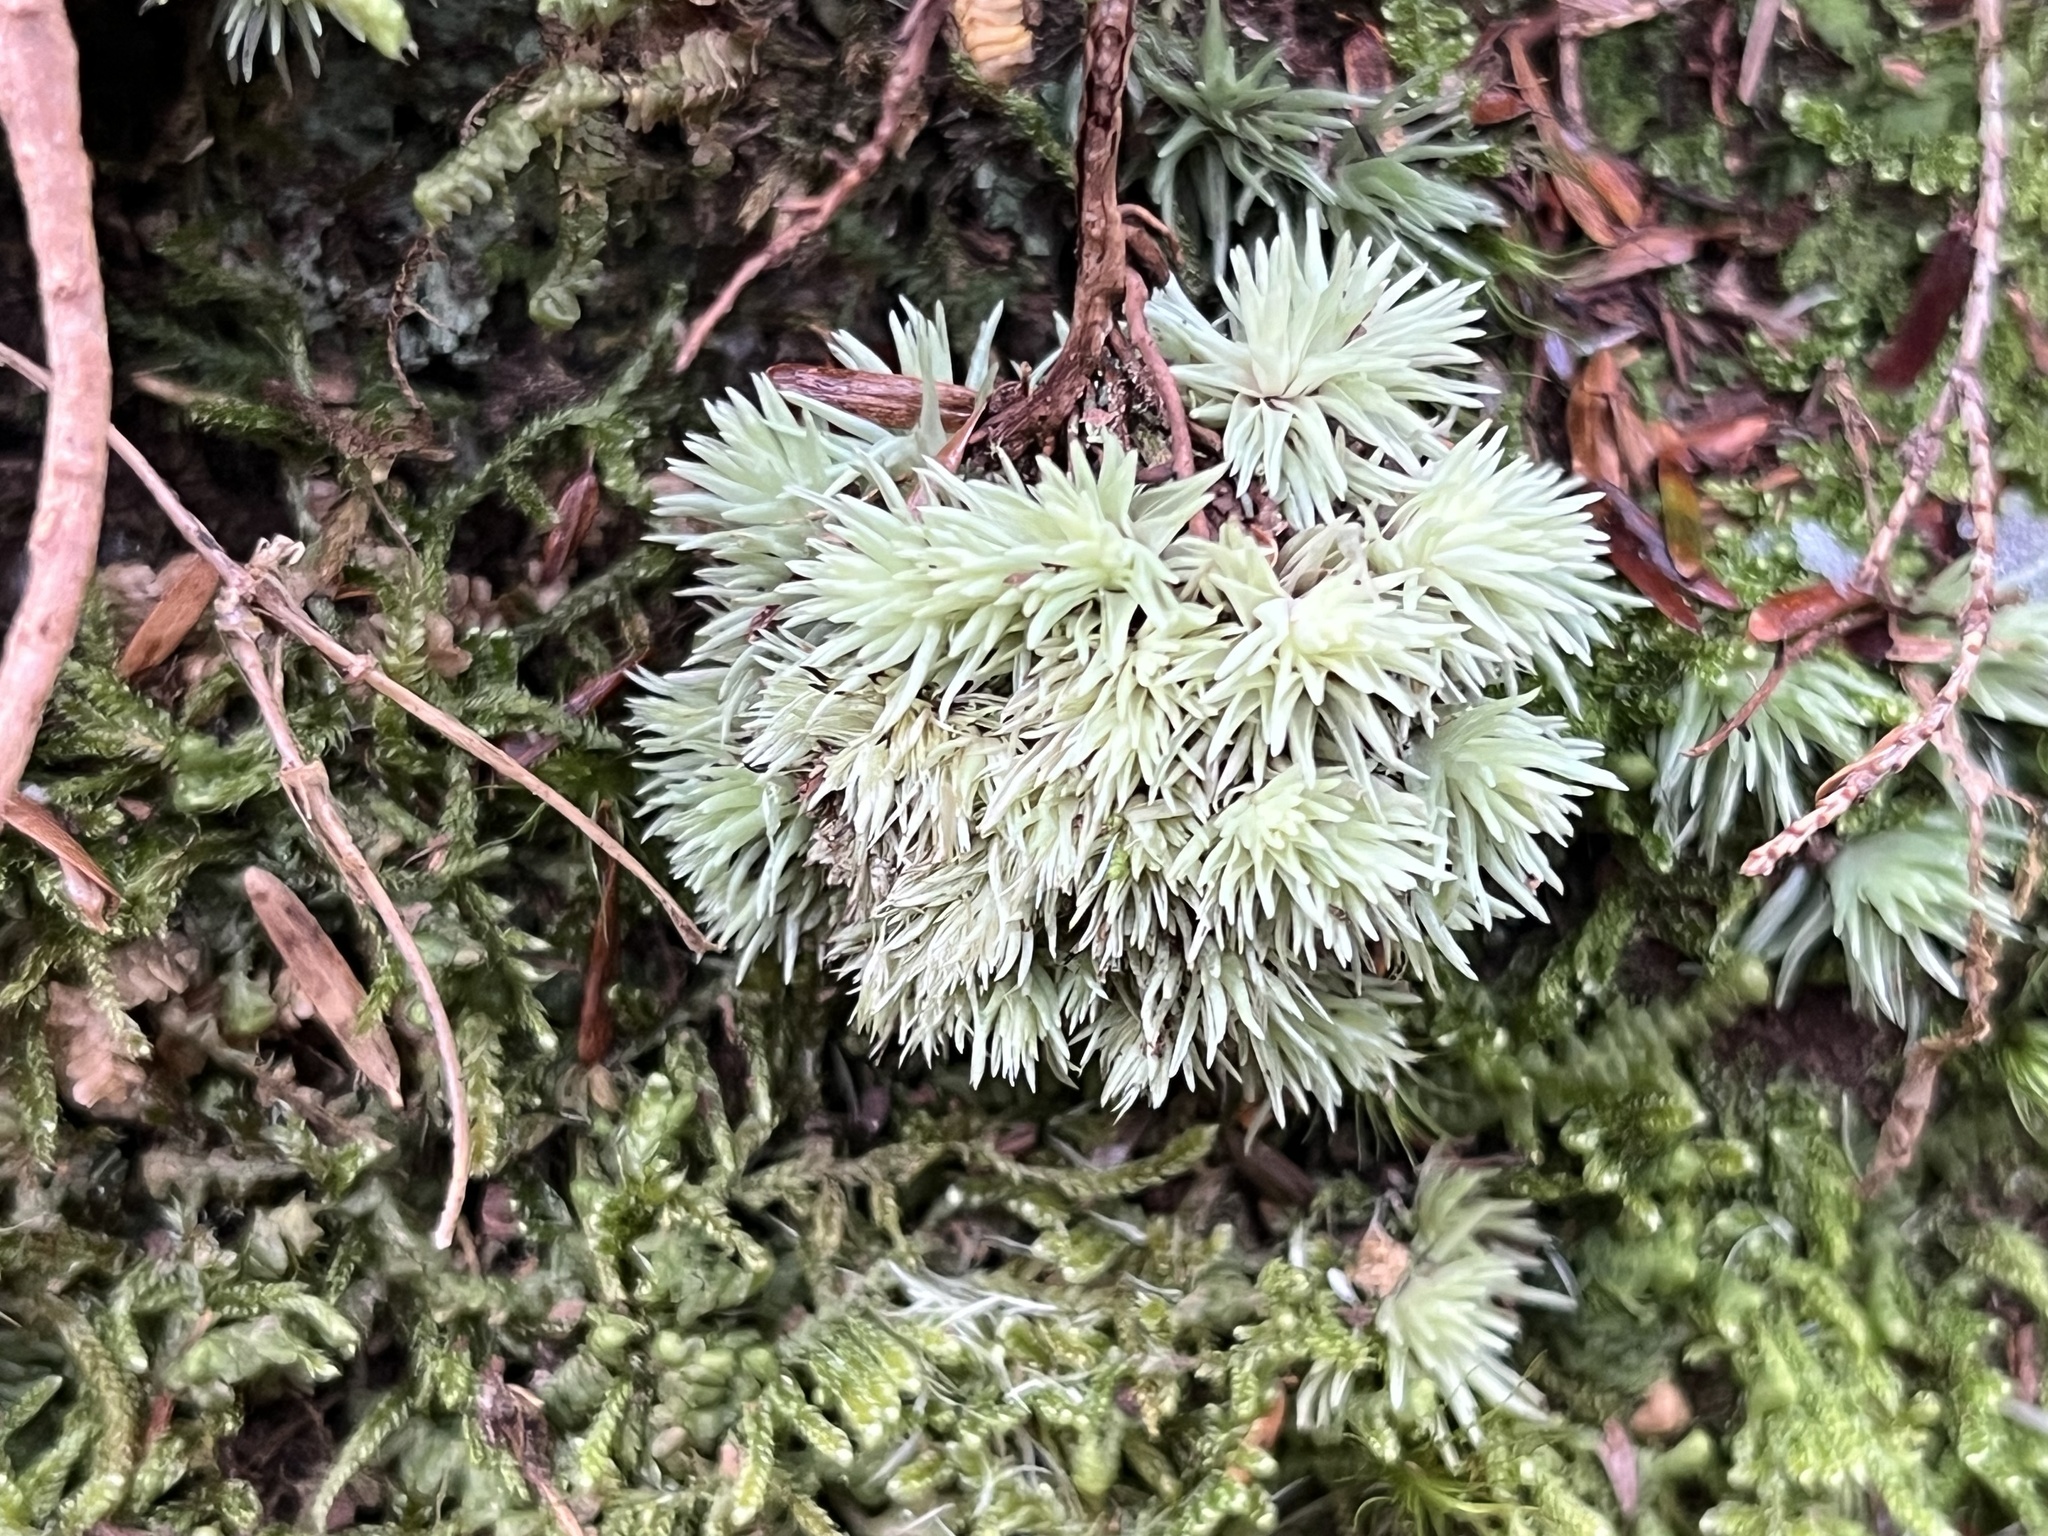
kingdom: Plantae
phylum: Bryophyta
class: Bryopsida
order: Dicranales
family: Leucobryaceae
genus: Leucobryum
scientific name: Leucobryum glaucum
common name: Large white-moss
